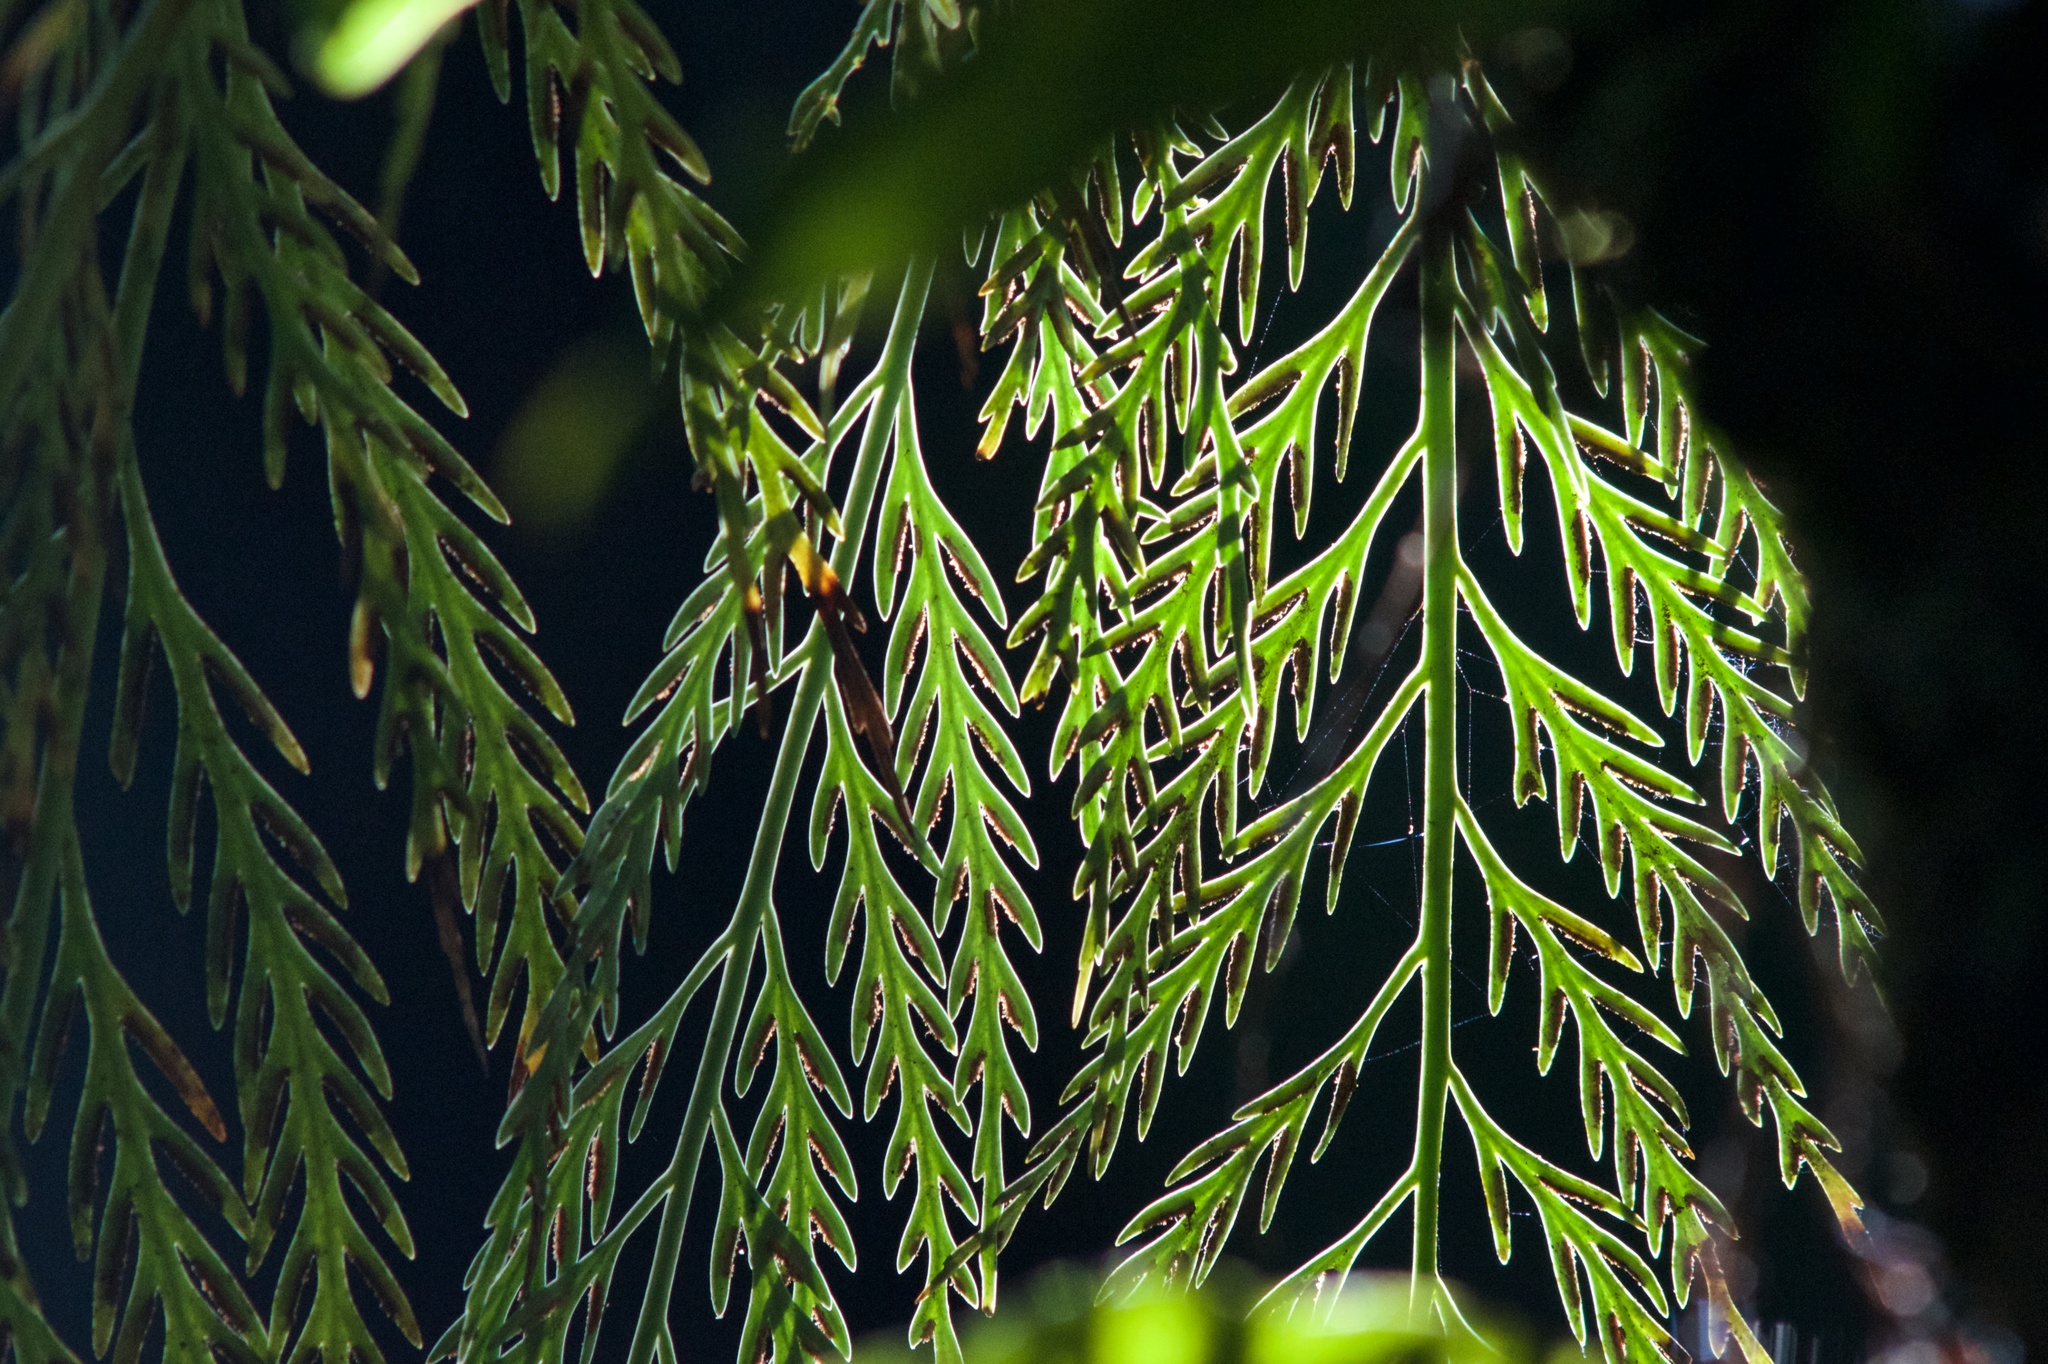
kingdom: Plantae
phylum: Tracheophyta
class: Polypodiopsida
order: Polypodiales
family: Aspleniaceae
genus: Asplenium
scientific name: Asplenium flaccidum
